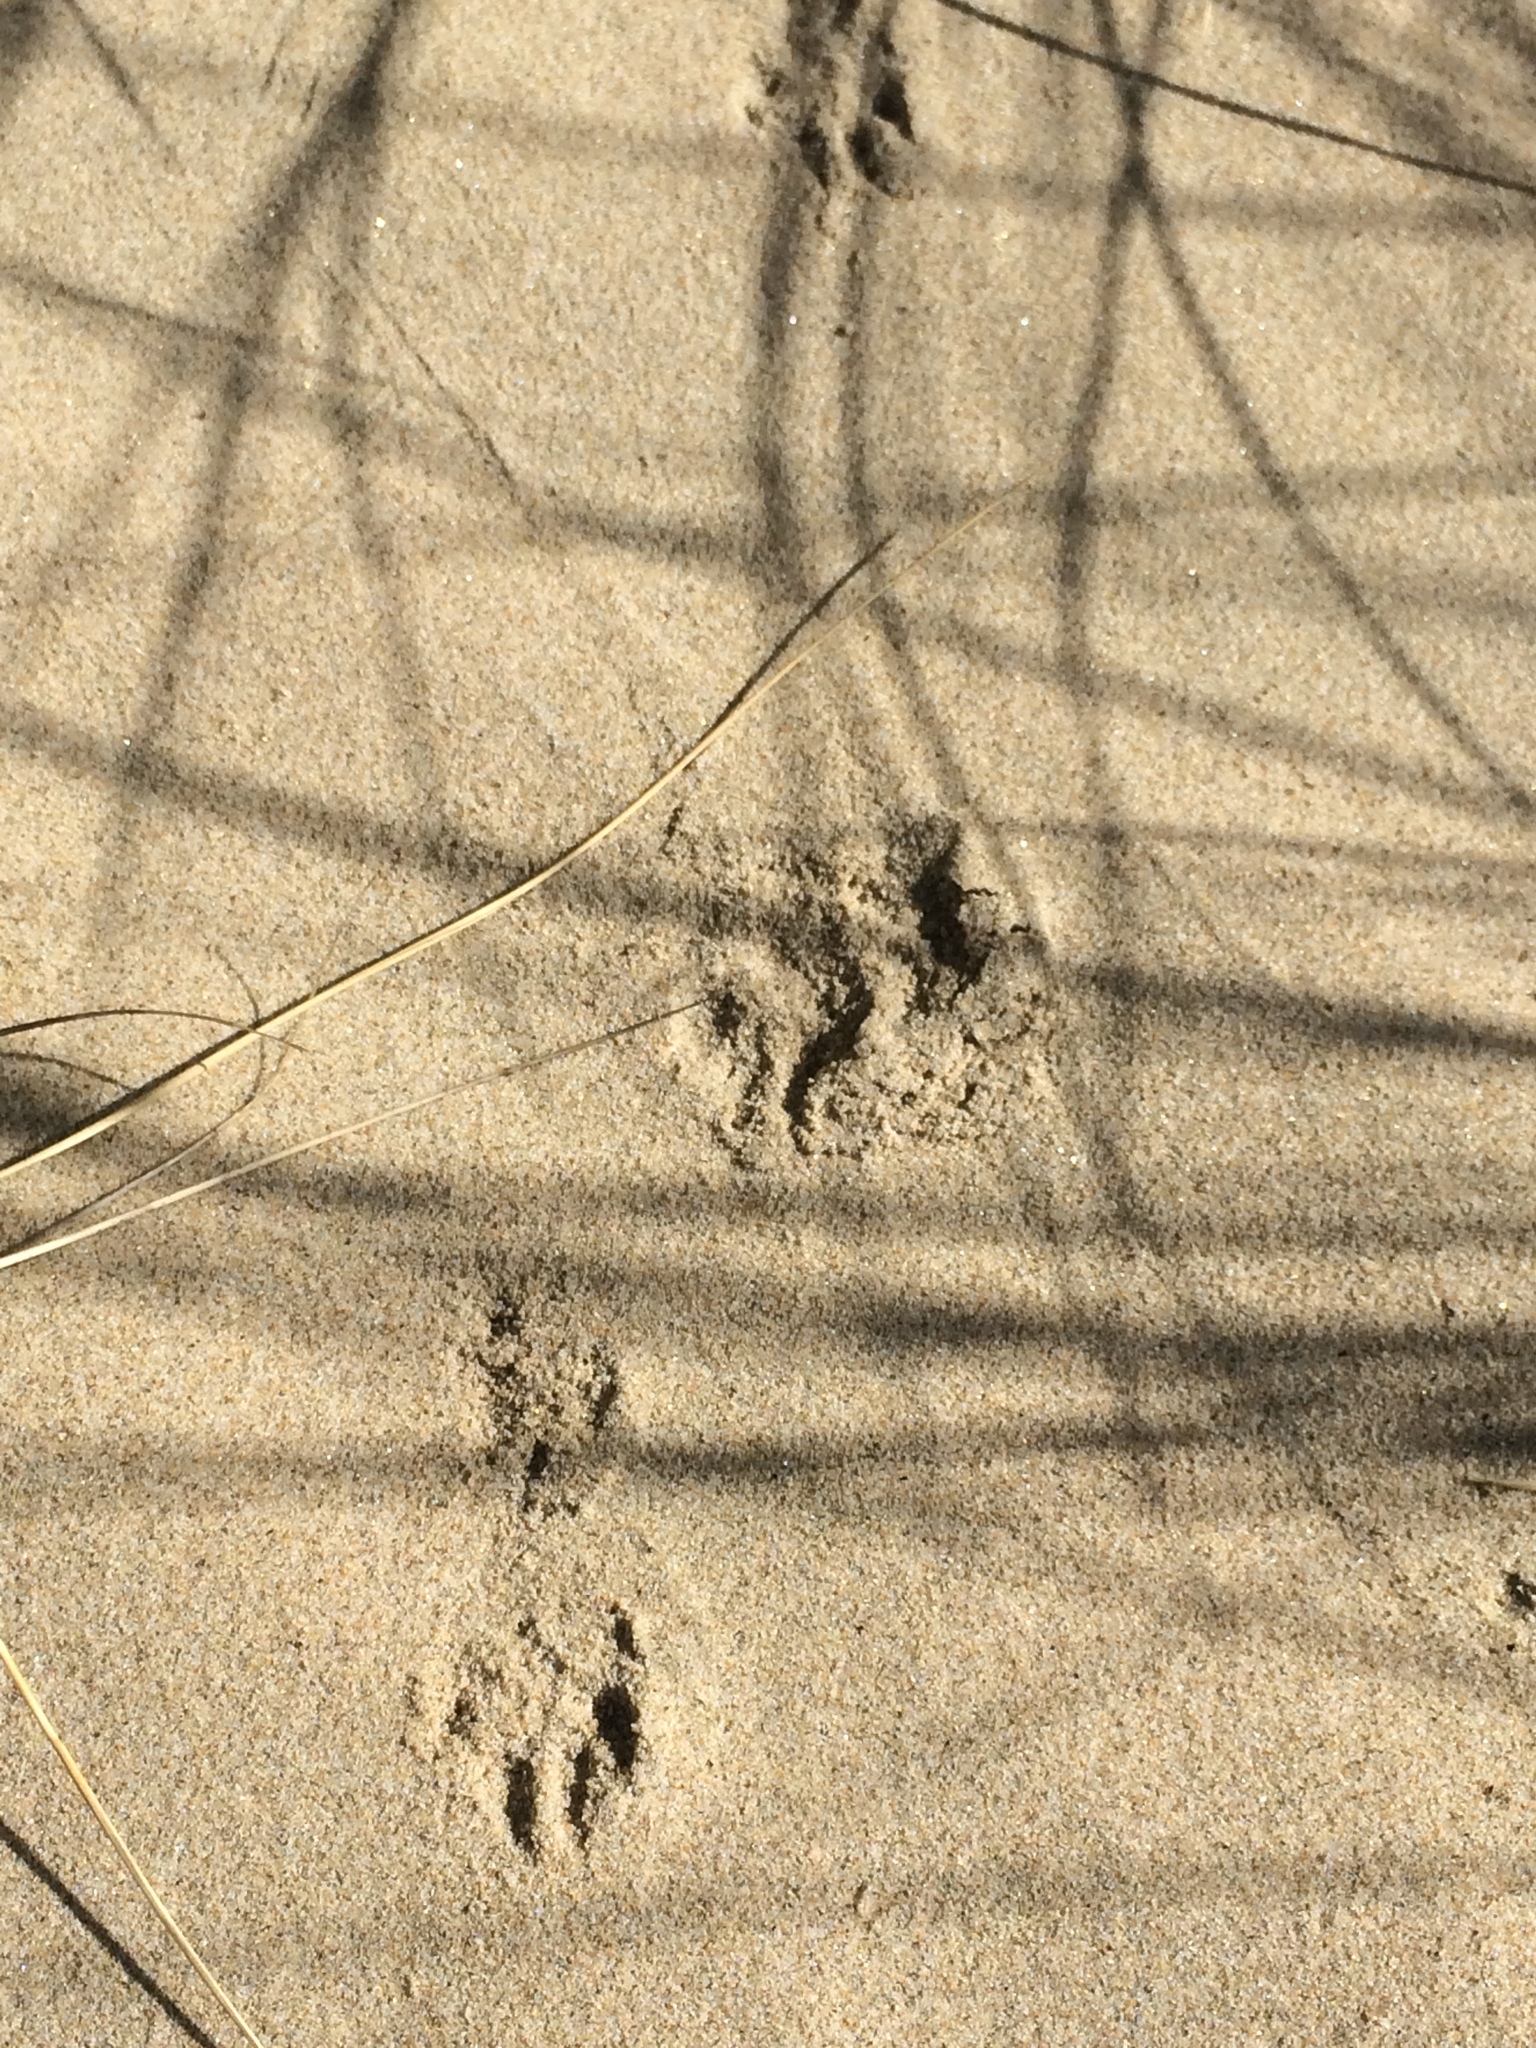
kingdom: Animalia
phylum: Chordata
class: Mammalia
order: Carnivora
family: Mustelidae
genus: Mustela
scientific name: Mustela erminea
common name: Stoat
